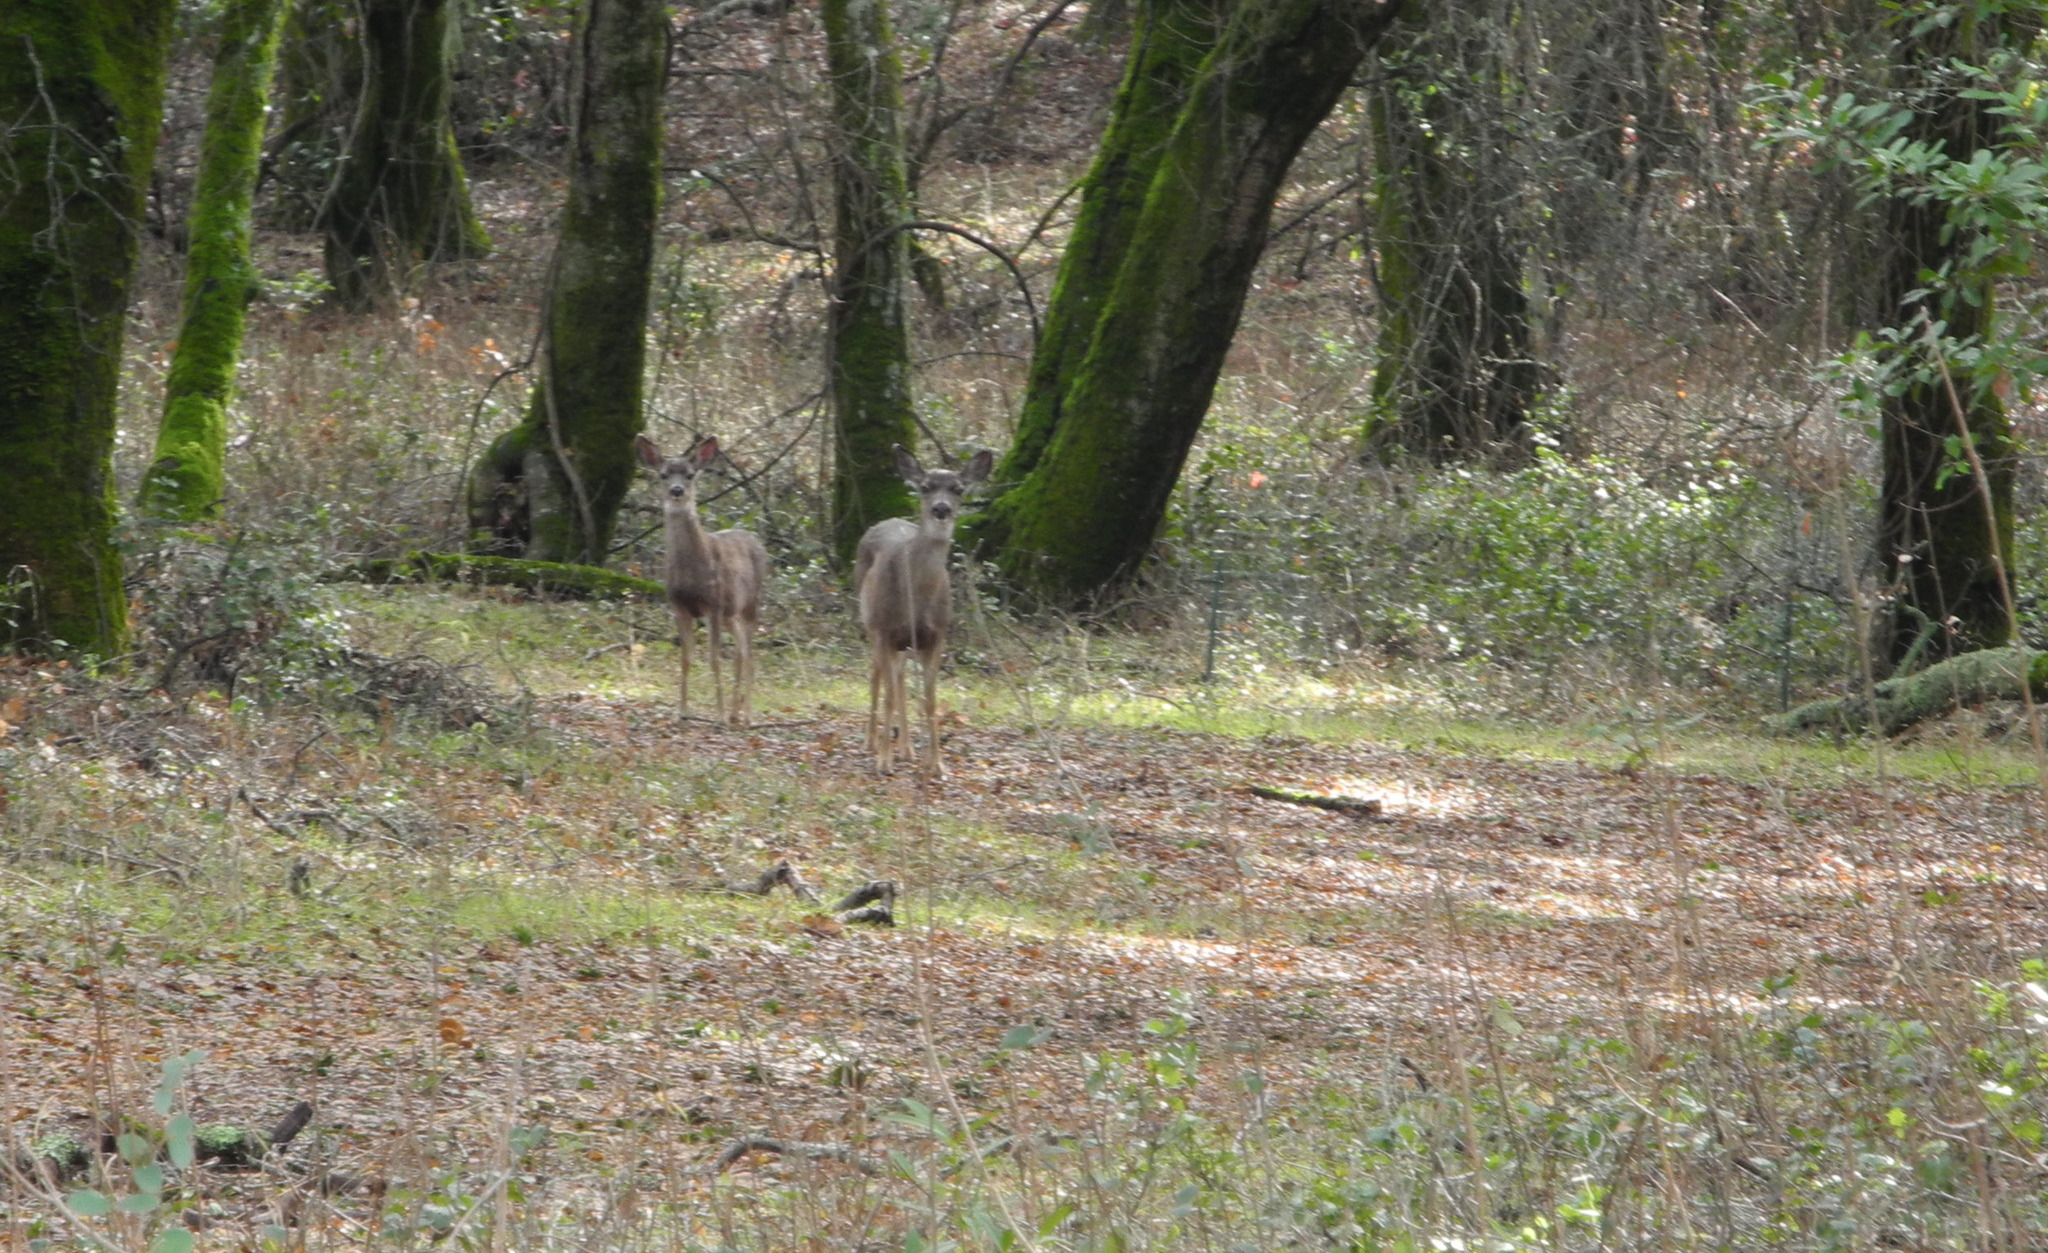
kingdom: Animalia
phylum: Chordata
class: Mammalia
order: Artiodactyla
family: Cervidae
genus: Odocoileus
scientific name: Odocoileus hemionus
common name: Mule deer
